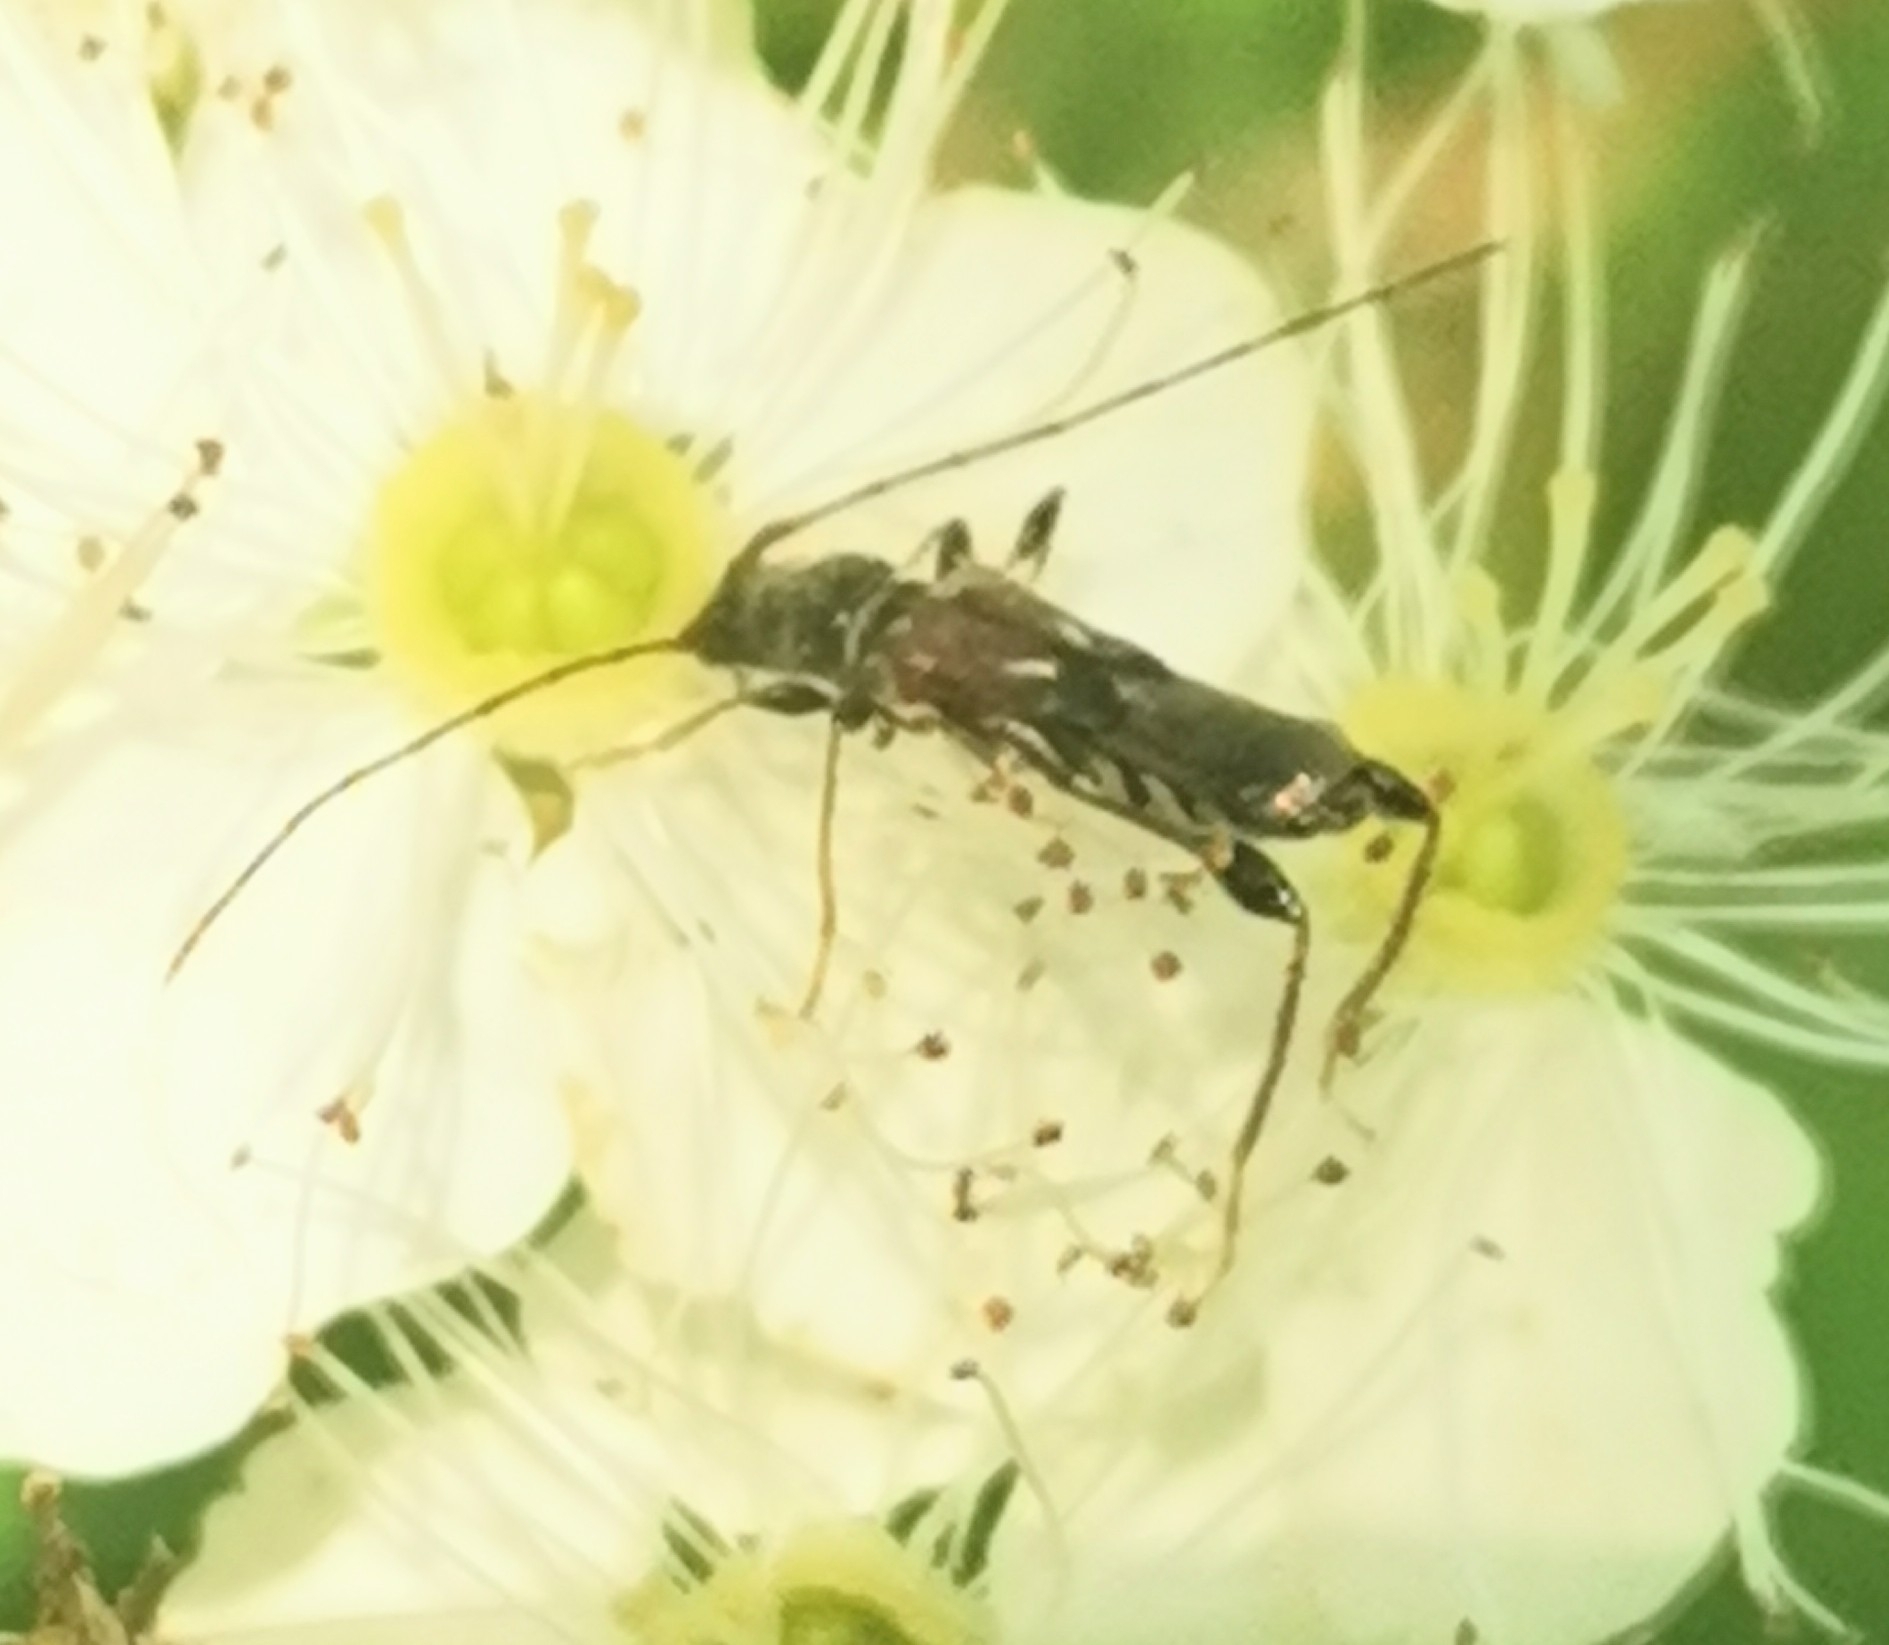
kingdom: Animalia
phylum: Arthropoda
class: Insecta
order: Coleoptera
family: Cerambycidae
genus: Molorchus
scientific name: Molorchus minor
